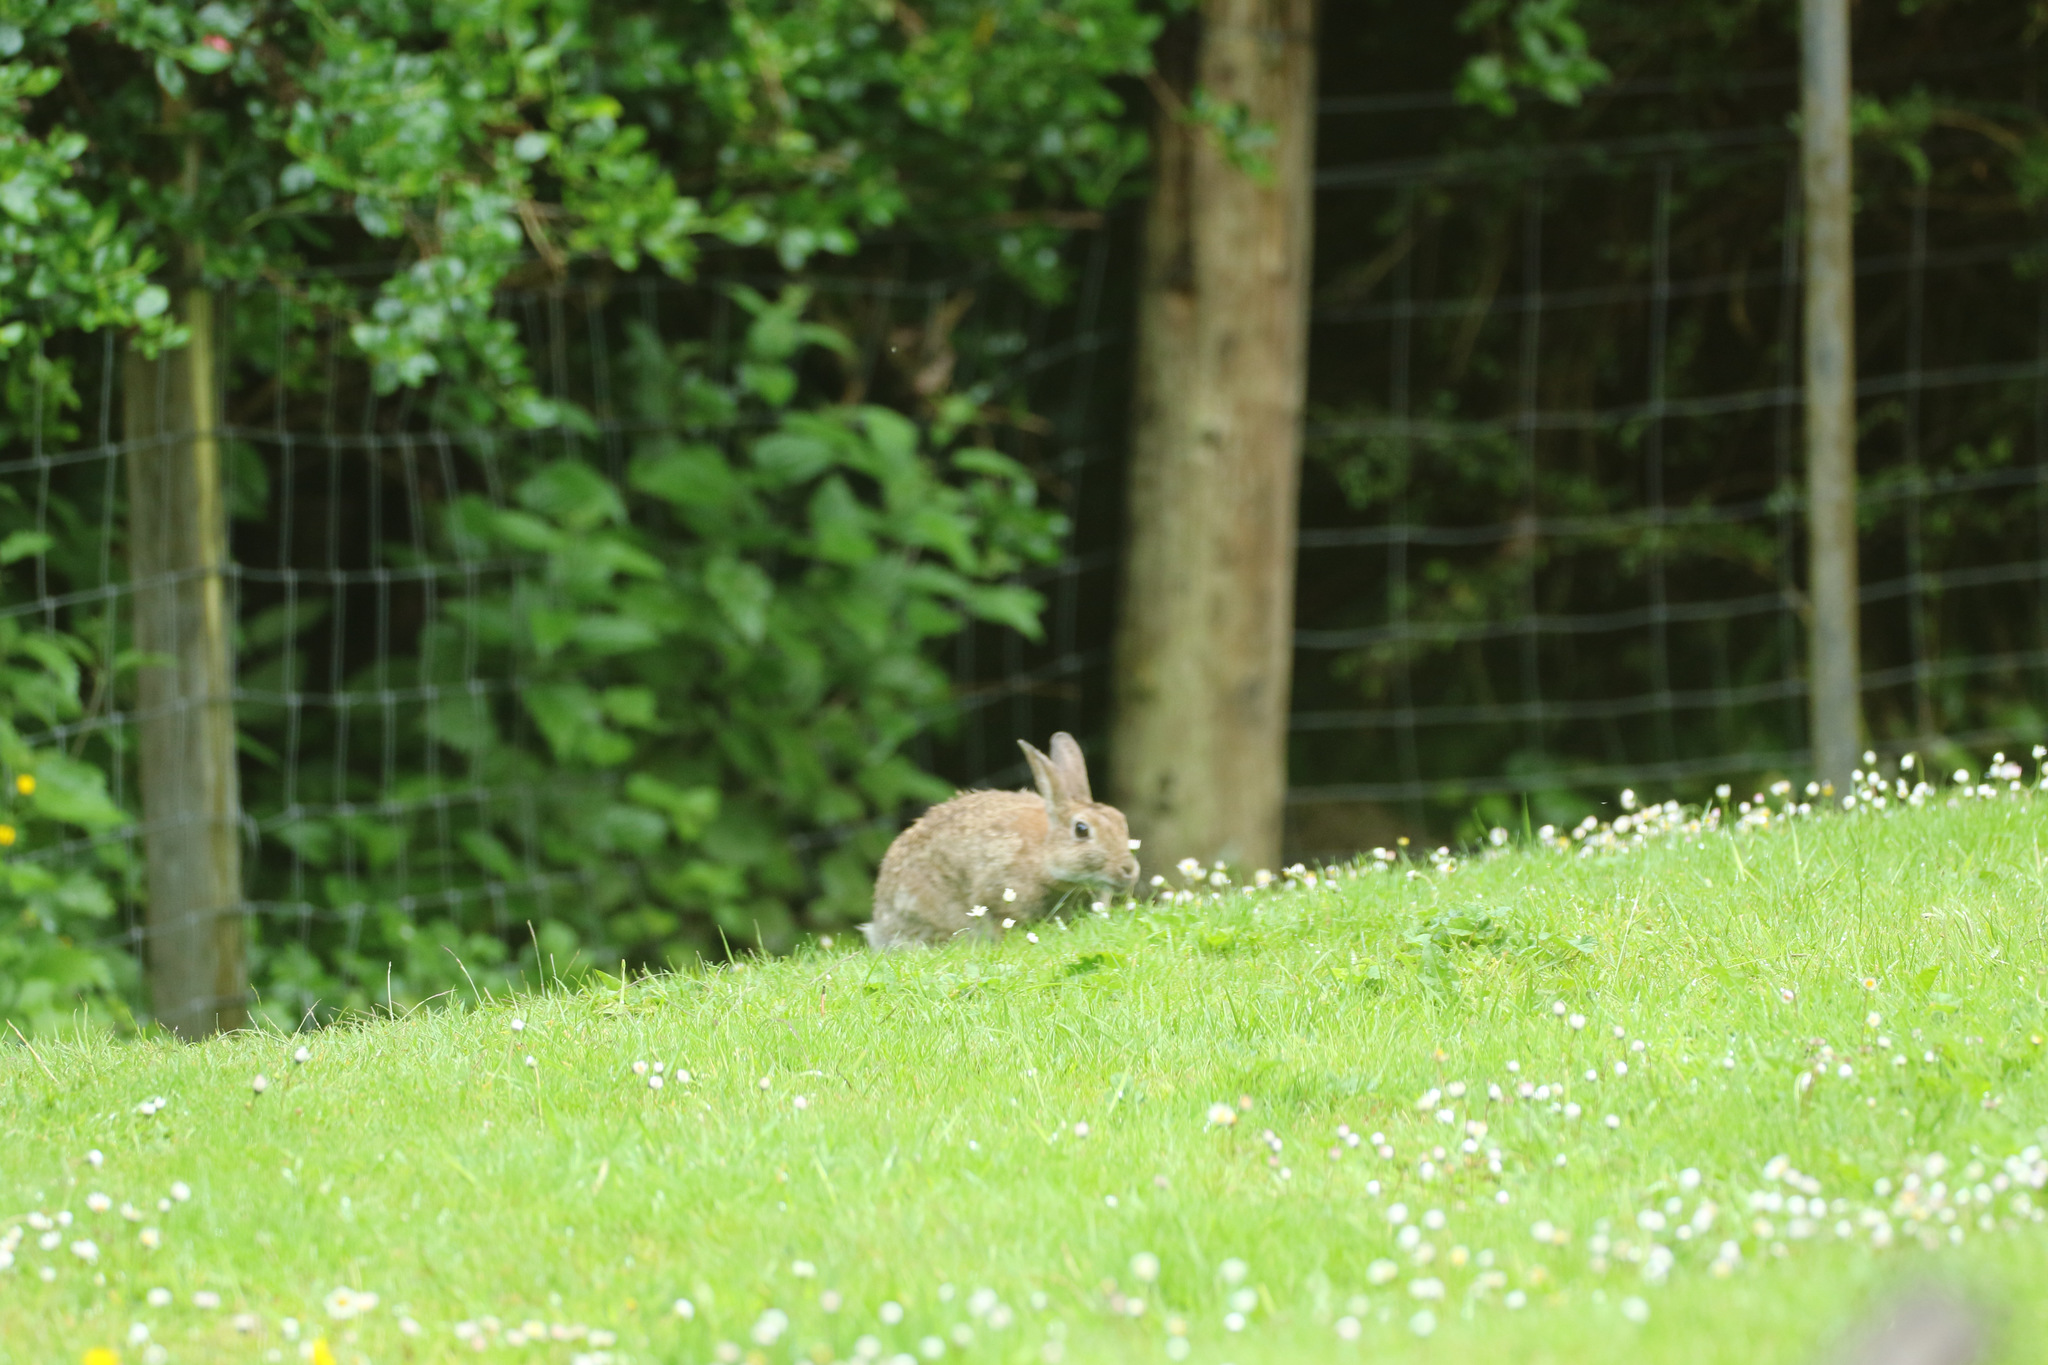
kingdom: Animalia
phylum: Chordata
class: Mammalia
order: Lagomorpha
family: Leporidae
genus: Oryctolagus
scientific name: Oryctolagus cuniculus
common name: European rabbit
